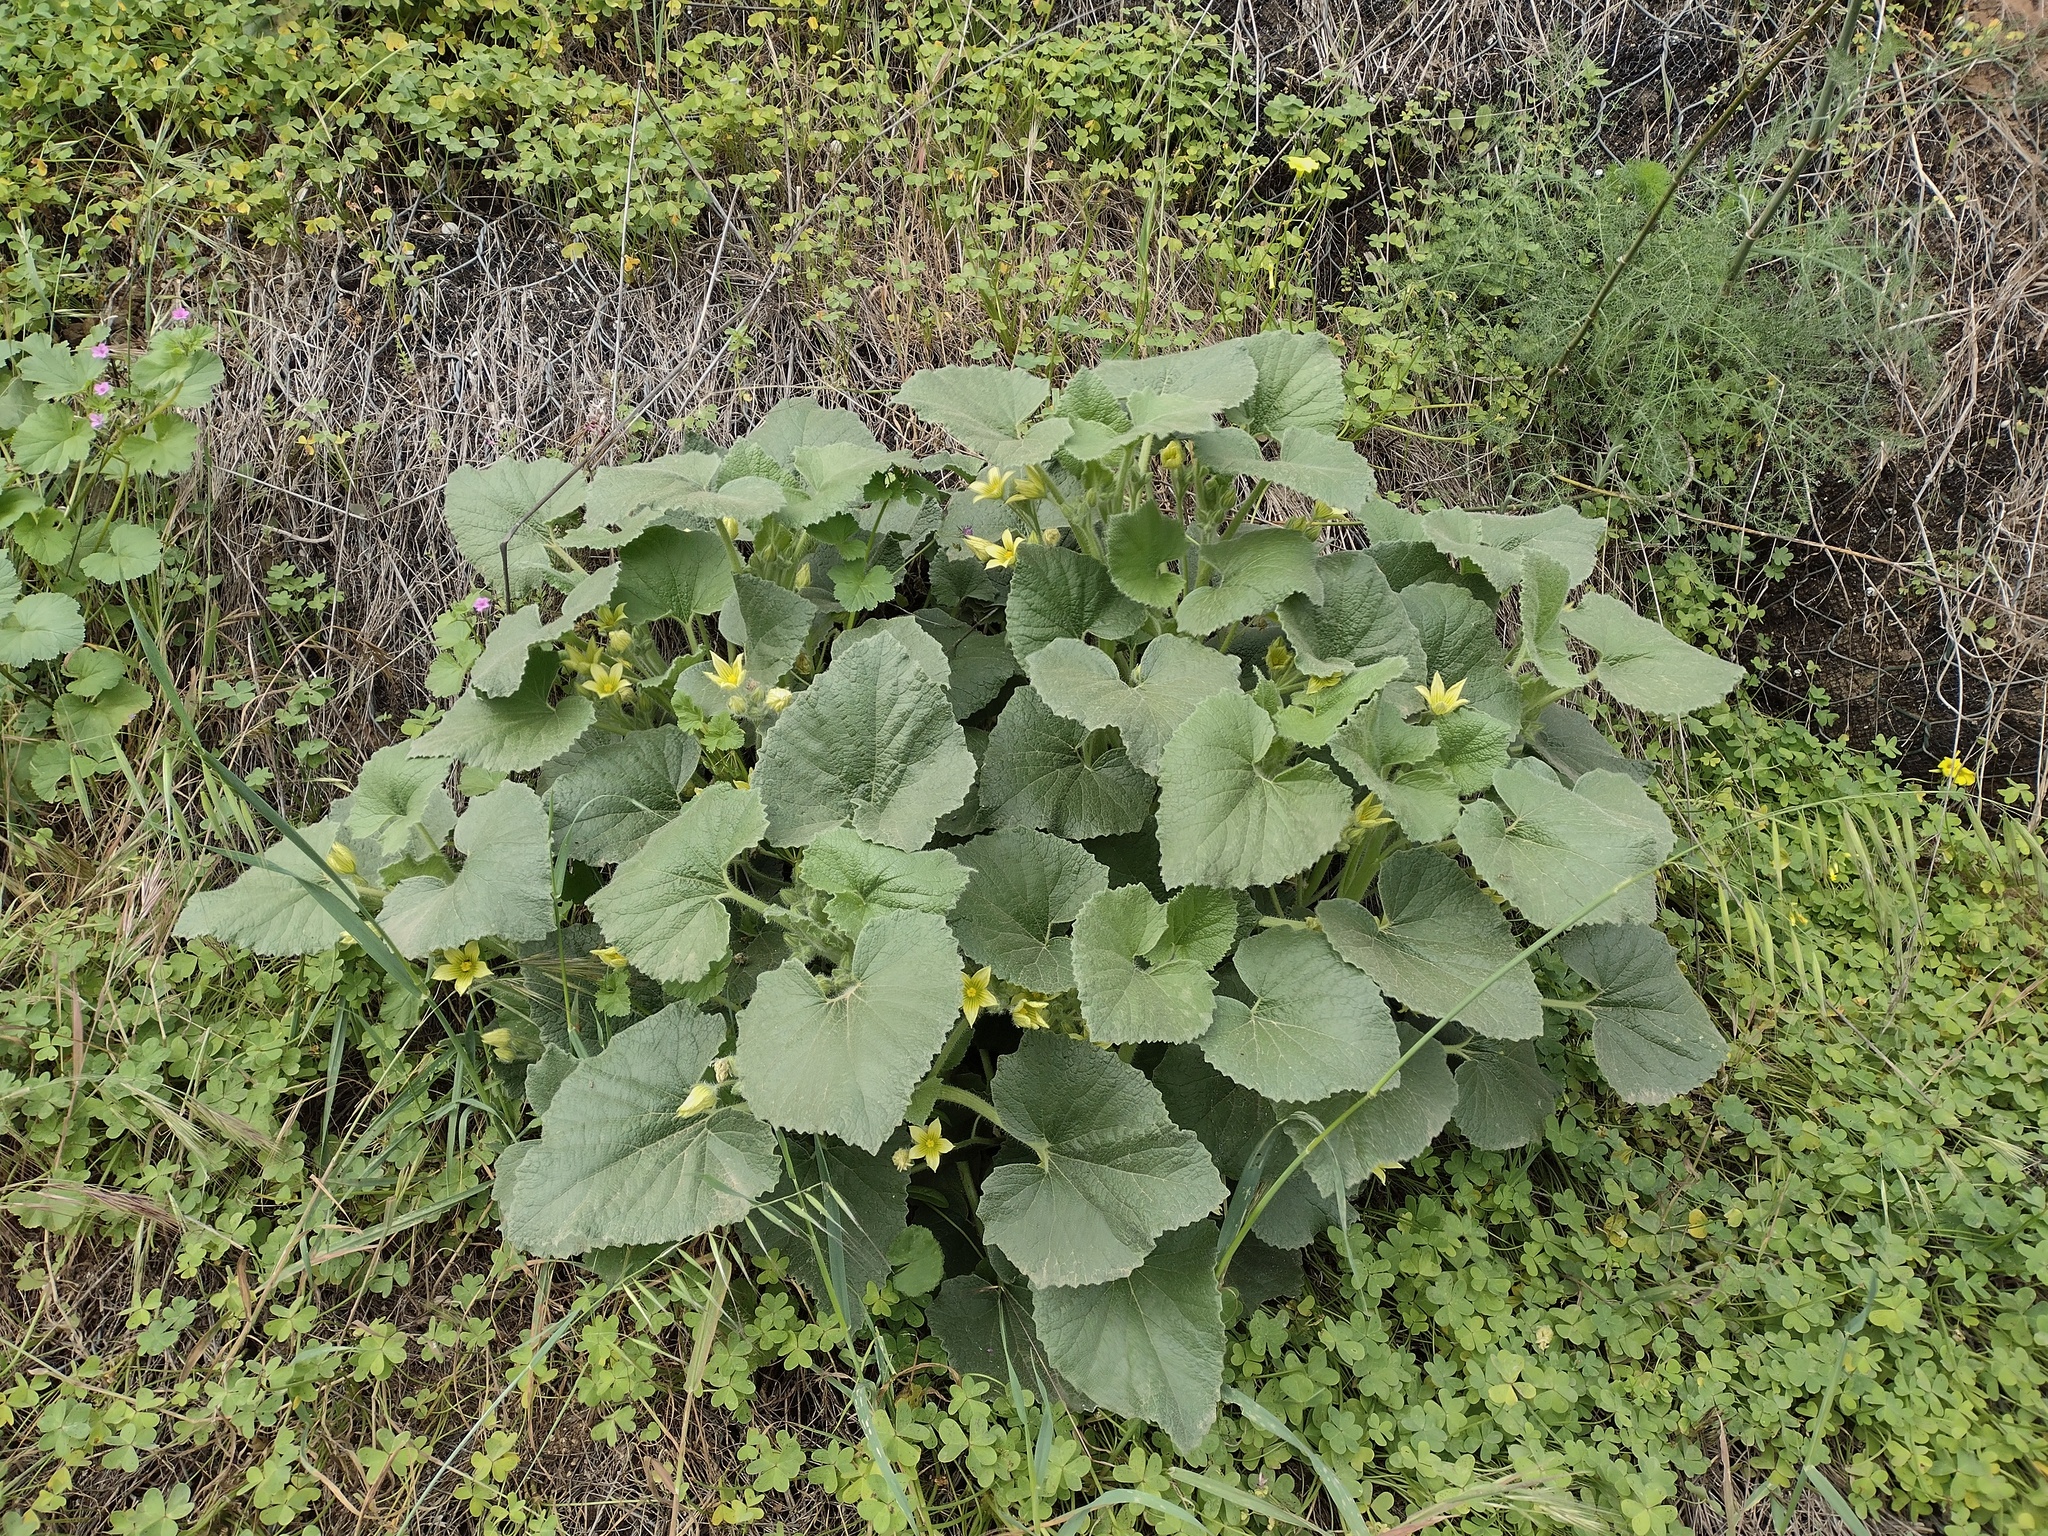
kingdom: Plantae
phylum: Tracheophyta
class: Magnoliopsida
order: Cucurbitales
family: Cucurbitaceae
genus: Ecballium
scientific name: Ecballium elaterium
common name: Squirting cucumber
